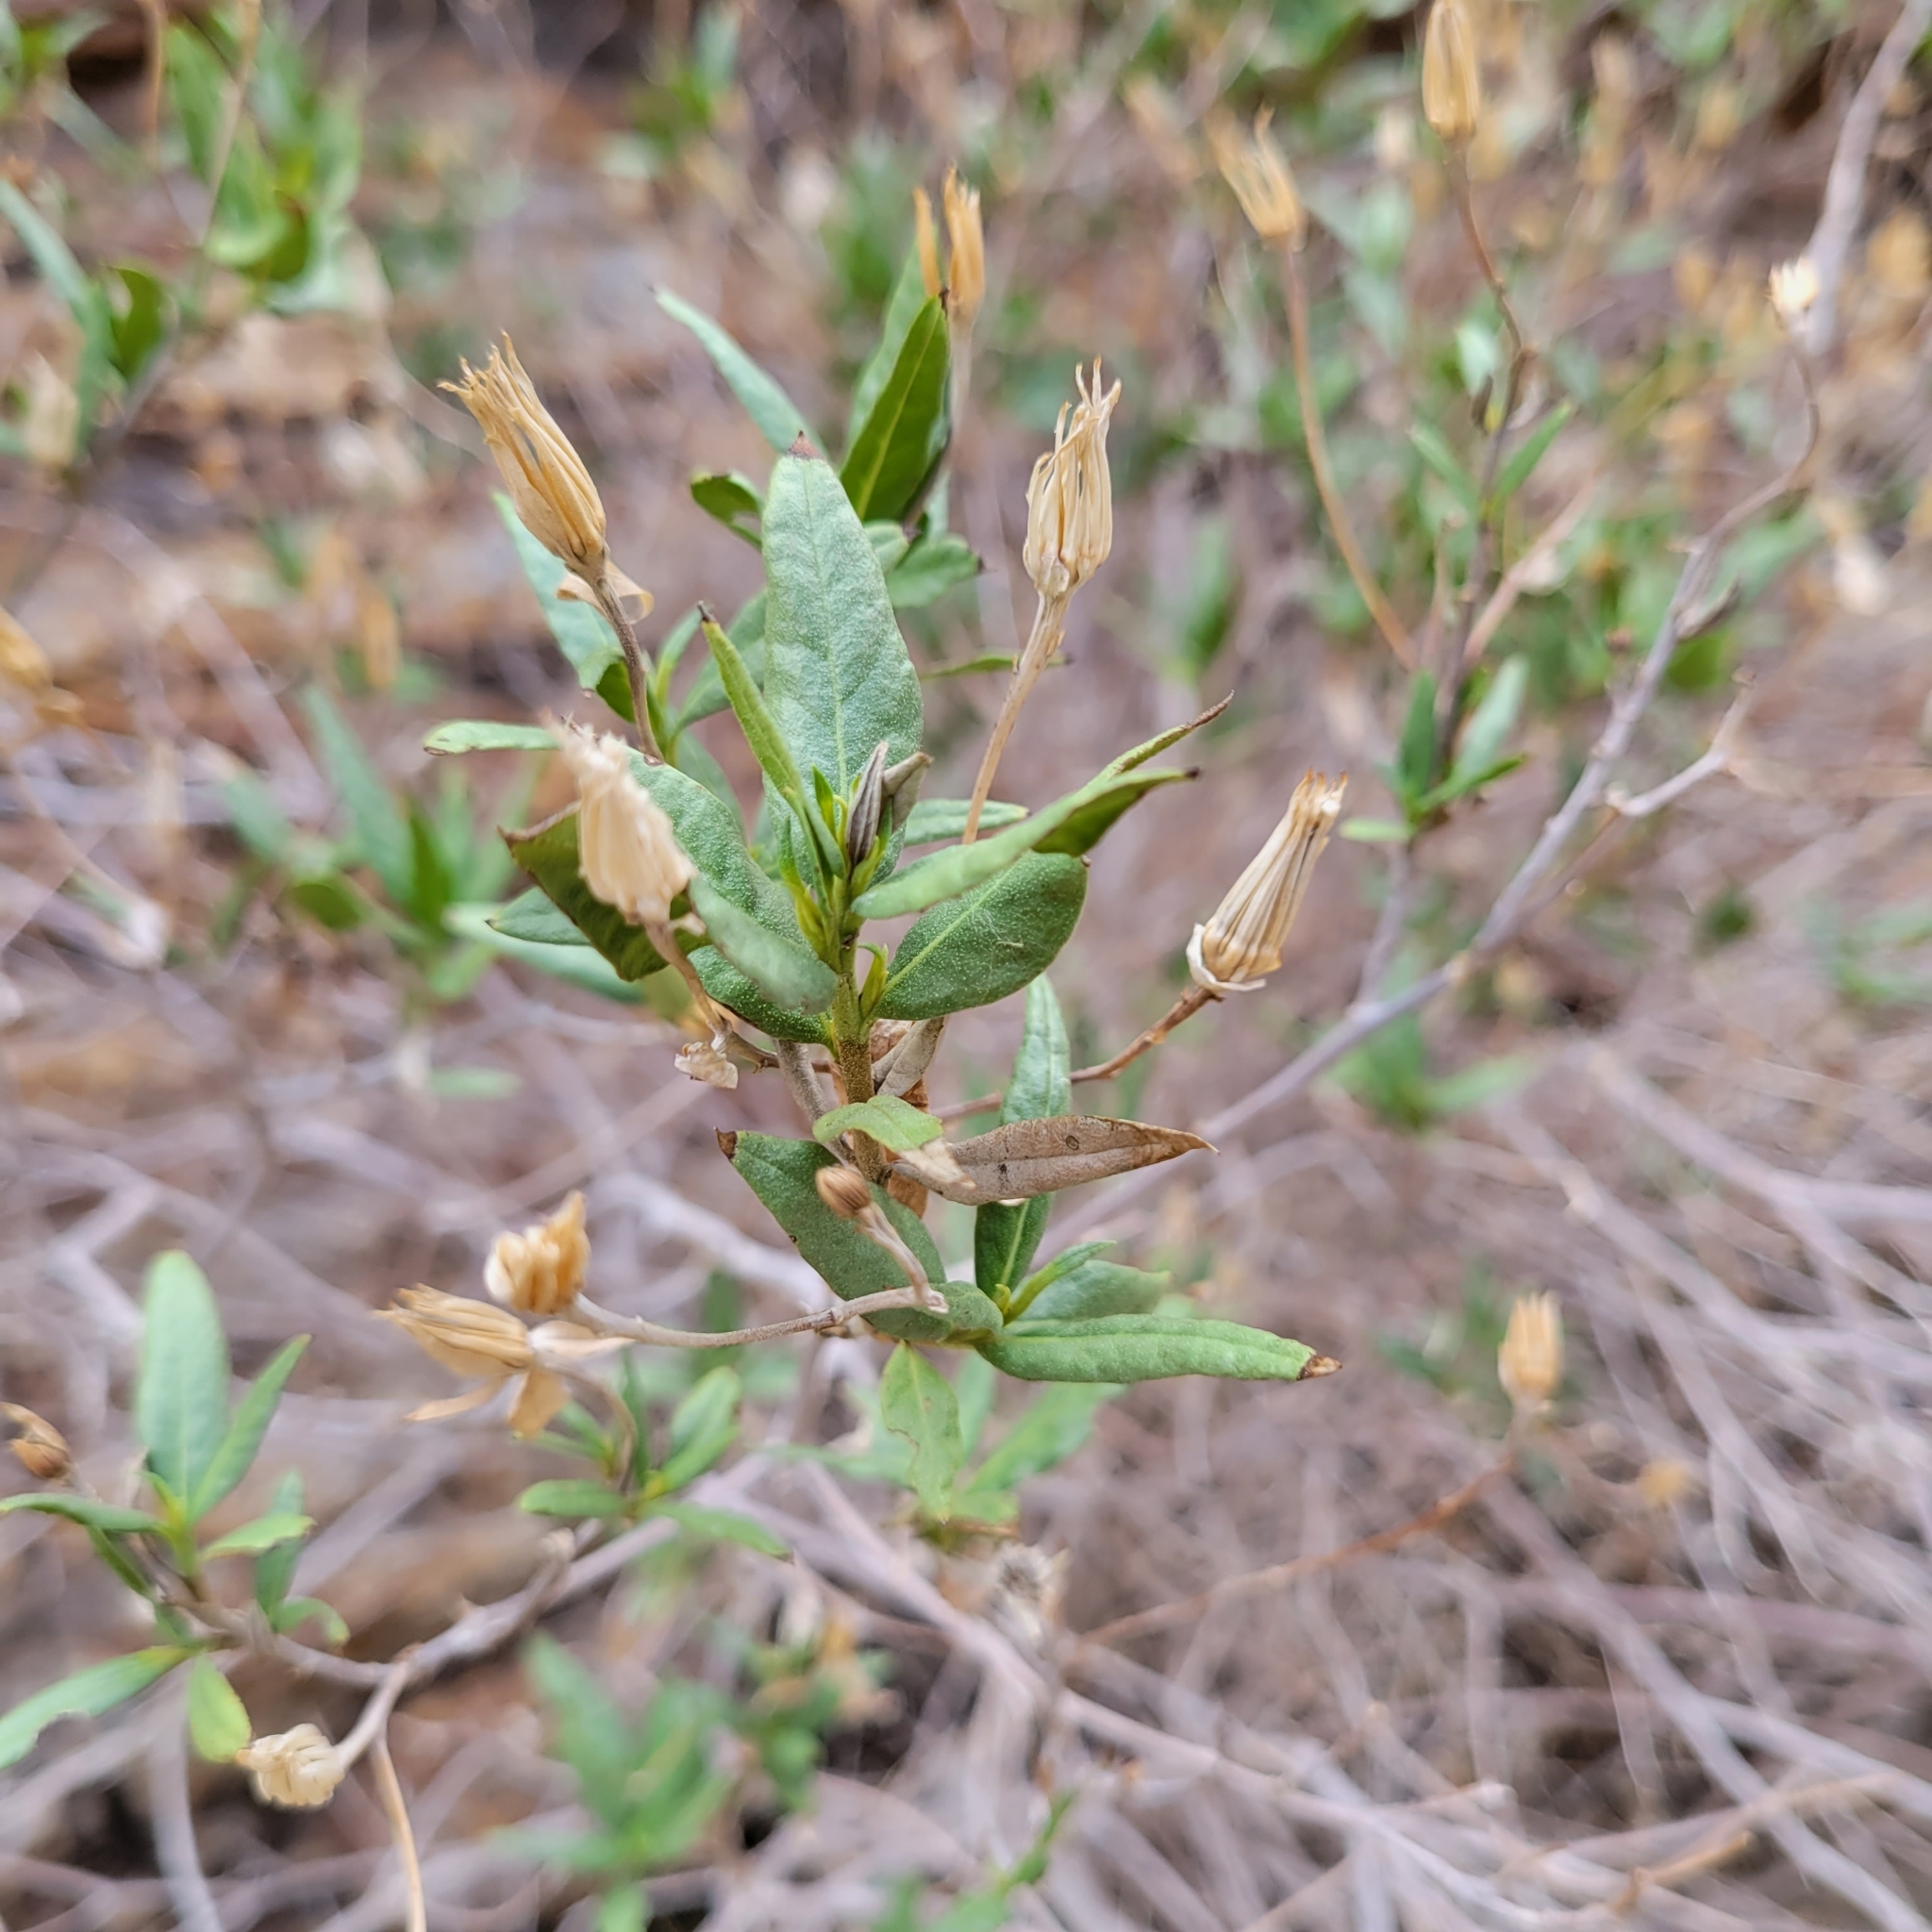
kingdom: Plantae
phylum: Tracheophyta
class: Magnoliopsida
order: Asterales
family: Asteraceae
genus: Trixis
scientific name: Trixis californica
